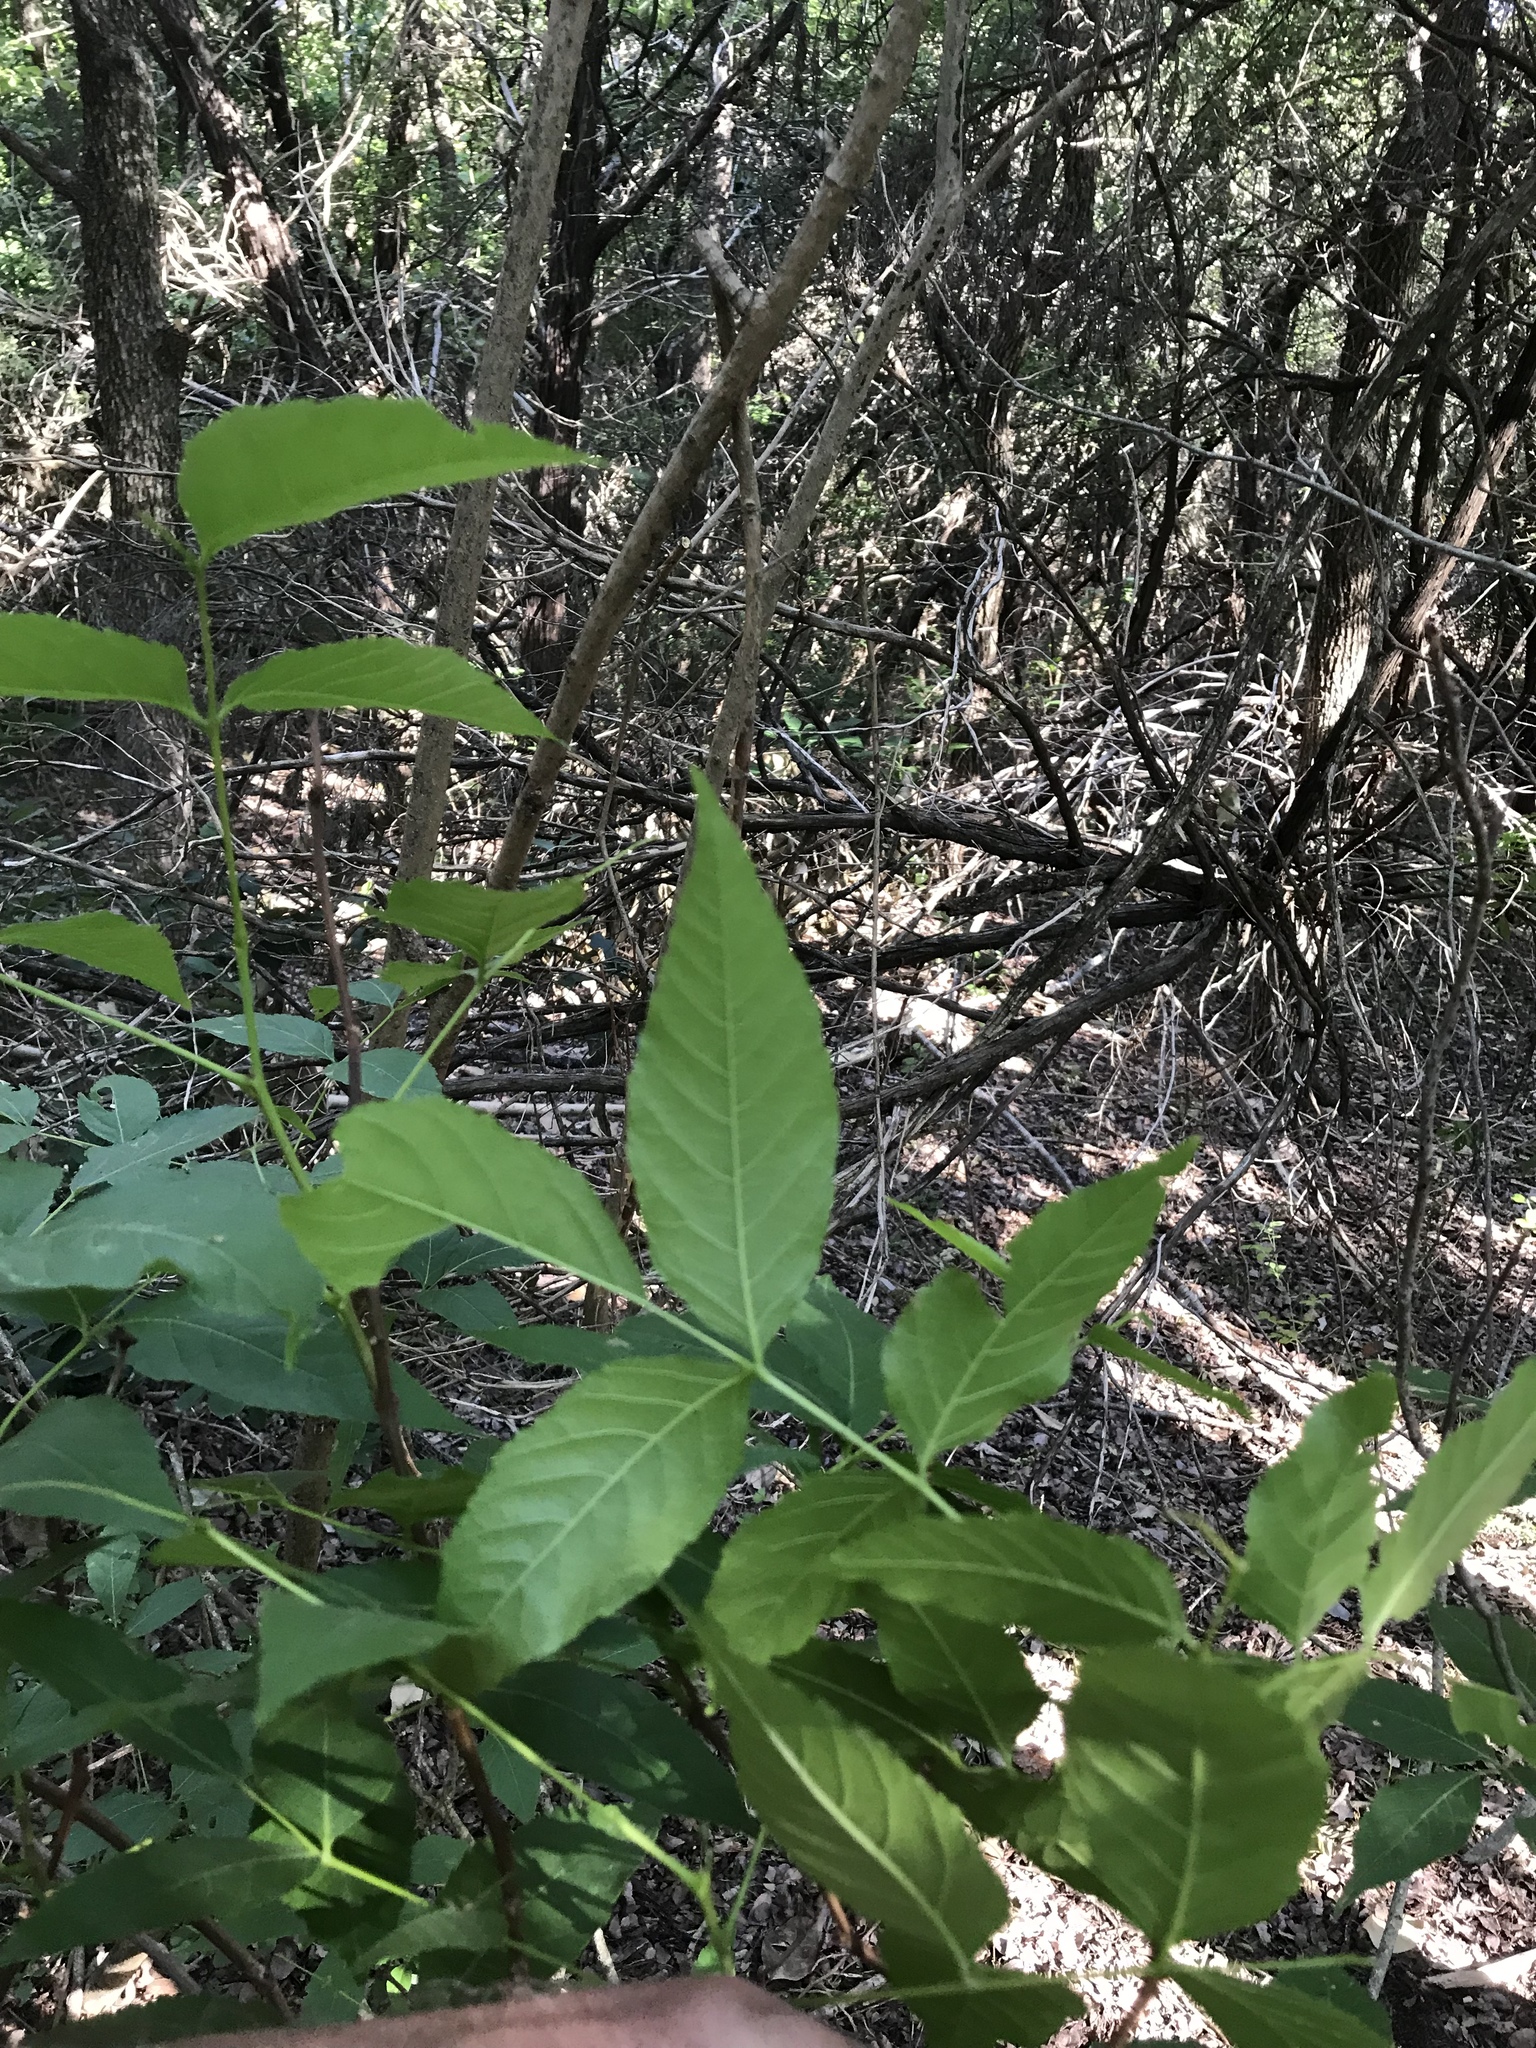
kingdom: Plantae
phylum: Tracheophyta
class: Magnoliopsida
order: Sapindales
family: Sapindaceae
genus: Ungnadia
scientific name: Ungnadia speciosa
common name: Texas-buckeye
